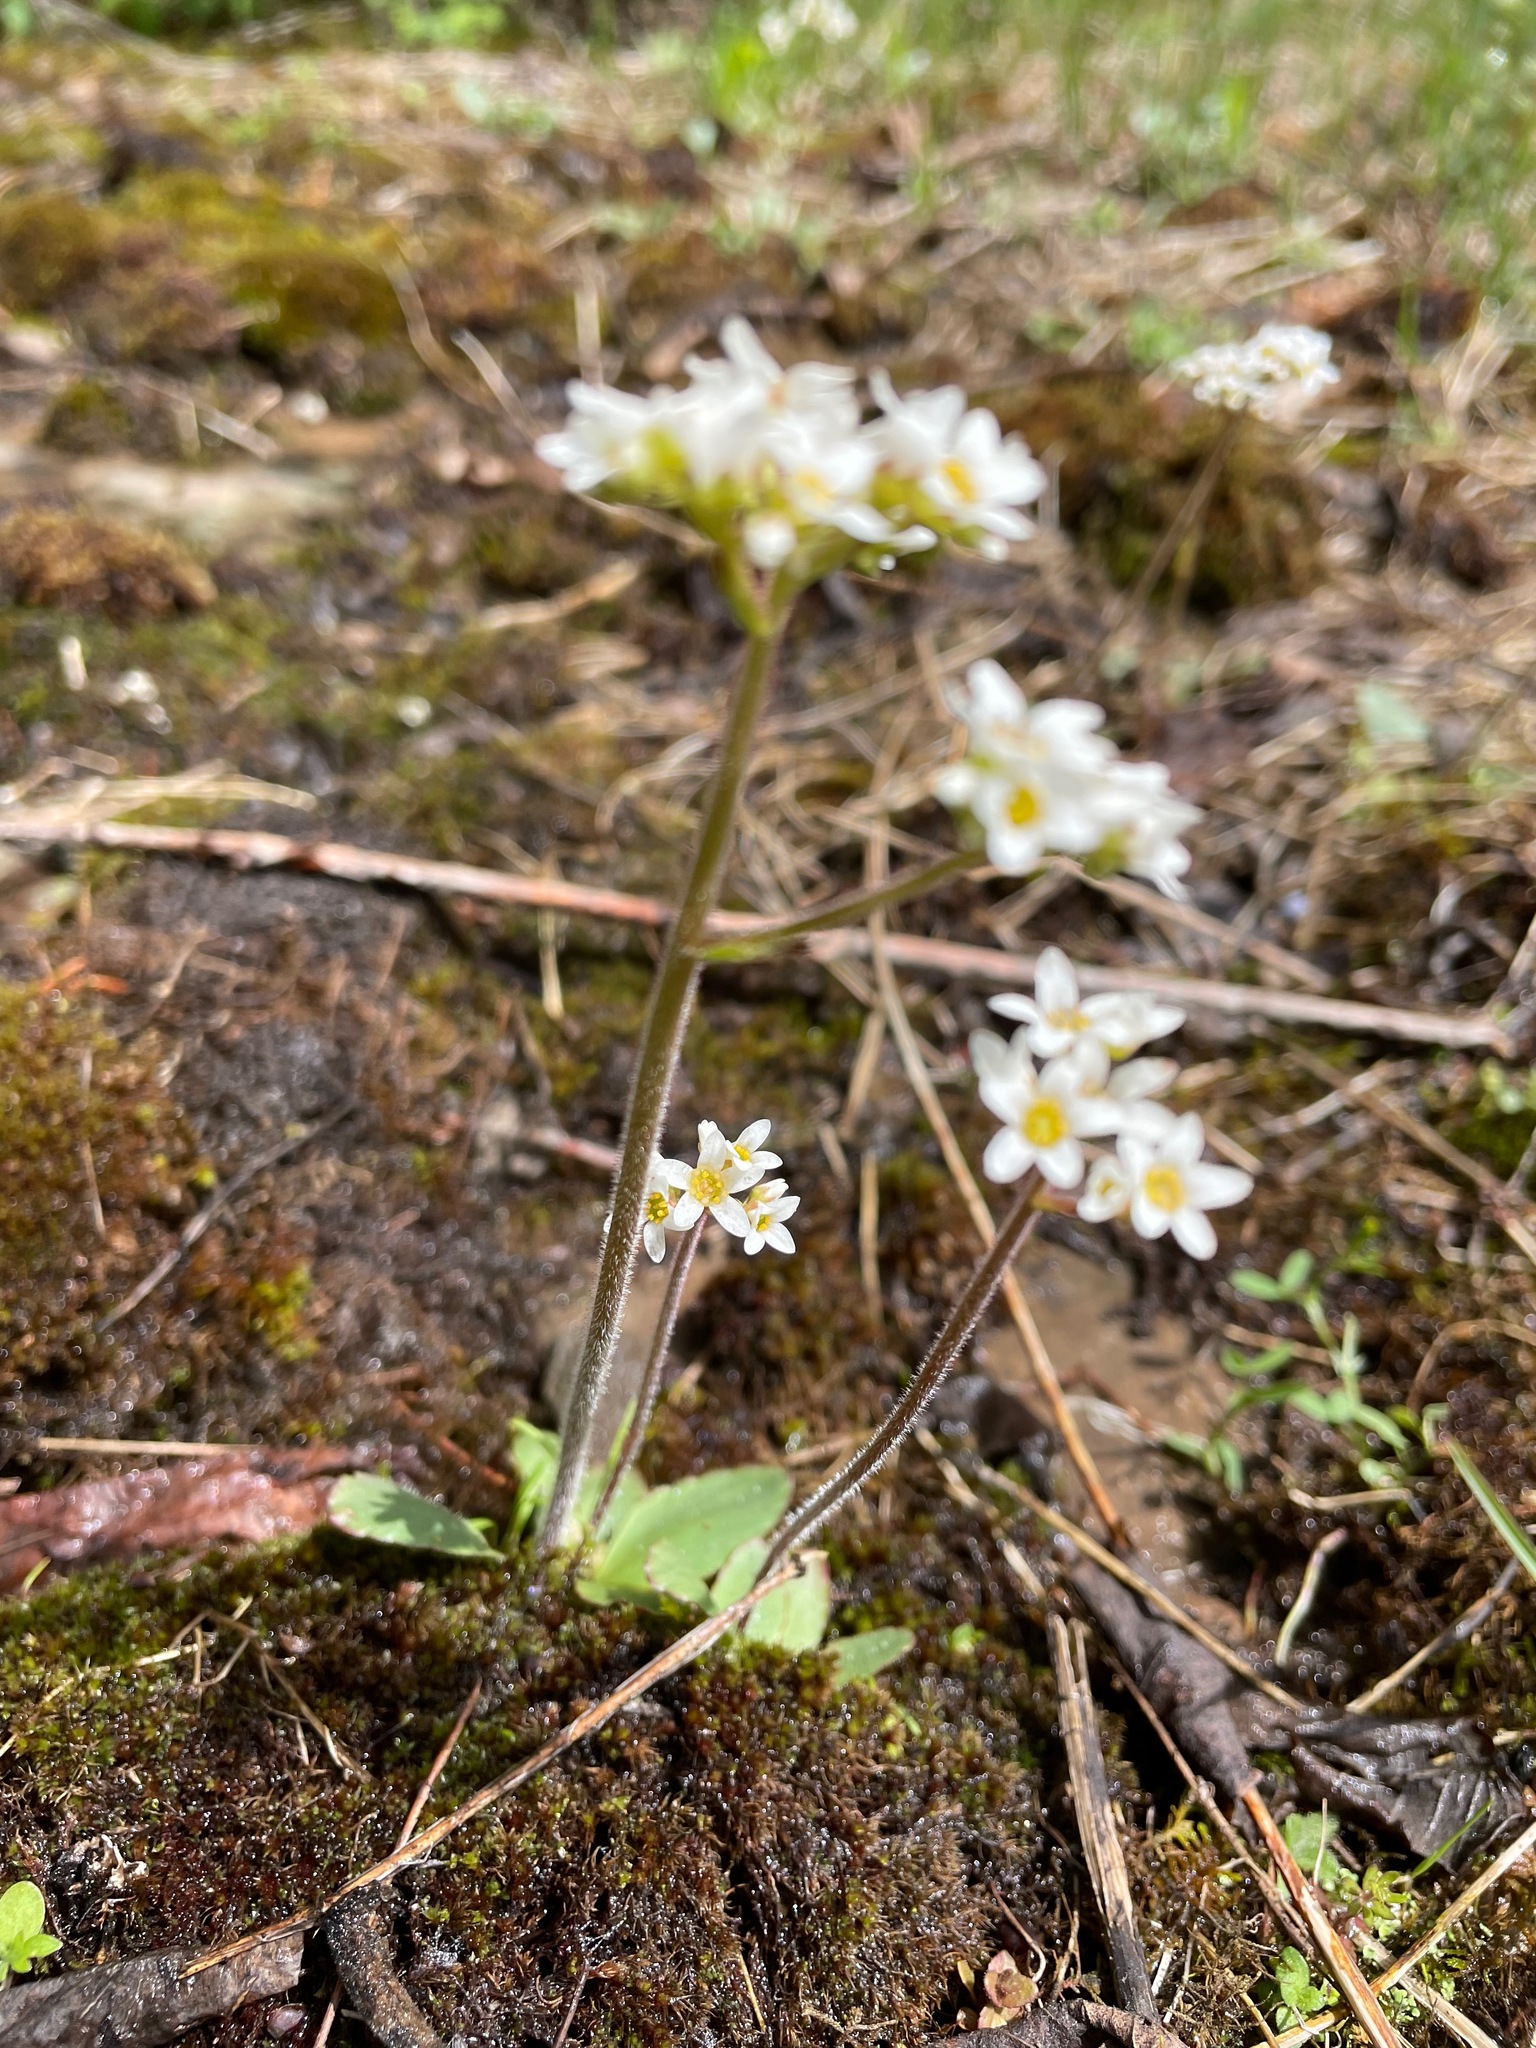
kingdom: Plantae
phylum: Tracheophyta
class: Magnoliopsida
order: Saxifragales
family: Saxifragaceae
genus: Micranthes
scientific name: Micranthes virginiensis
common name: Early saxifrage
